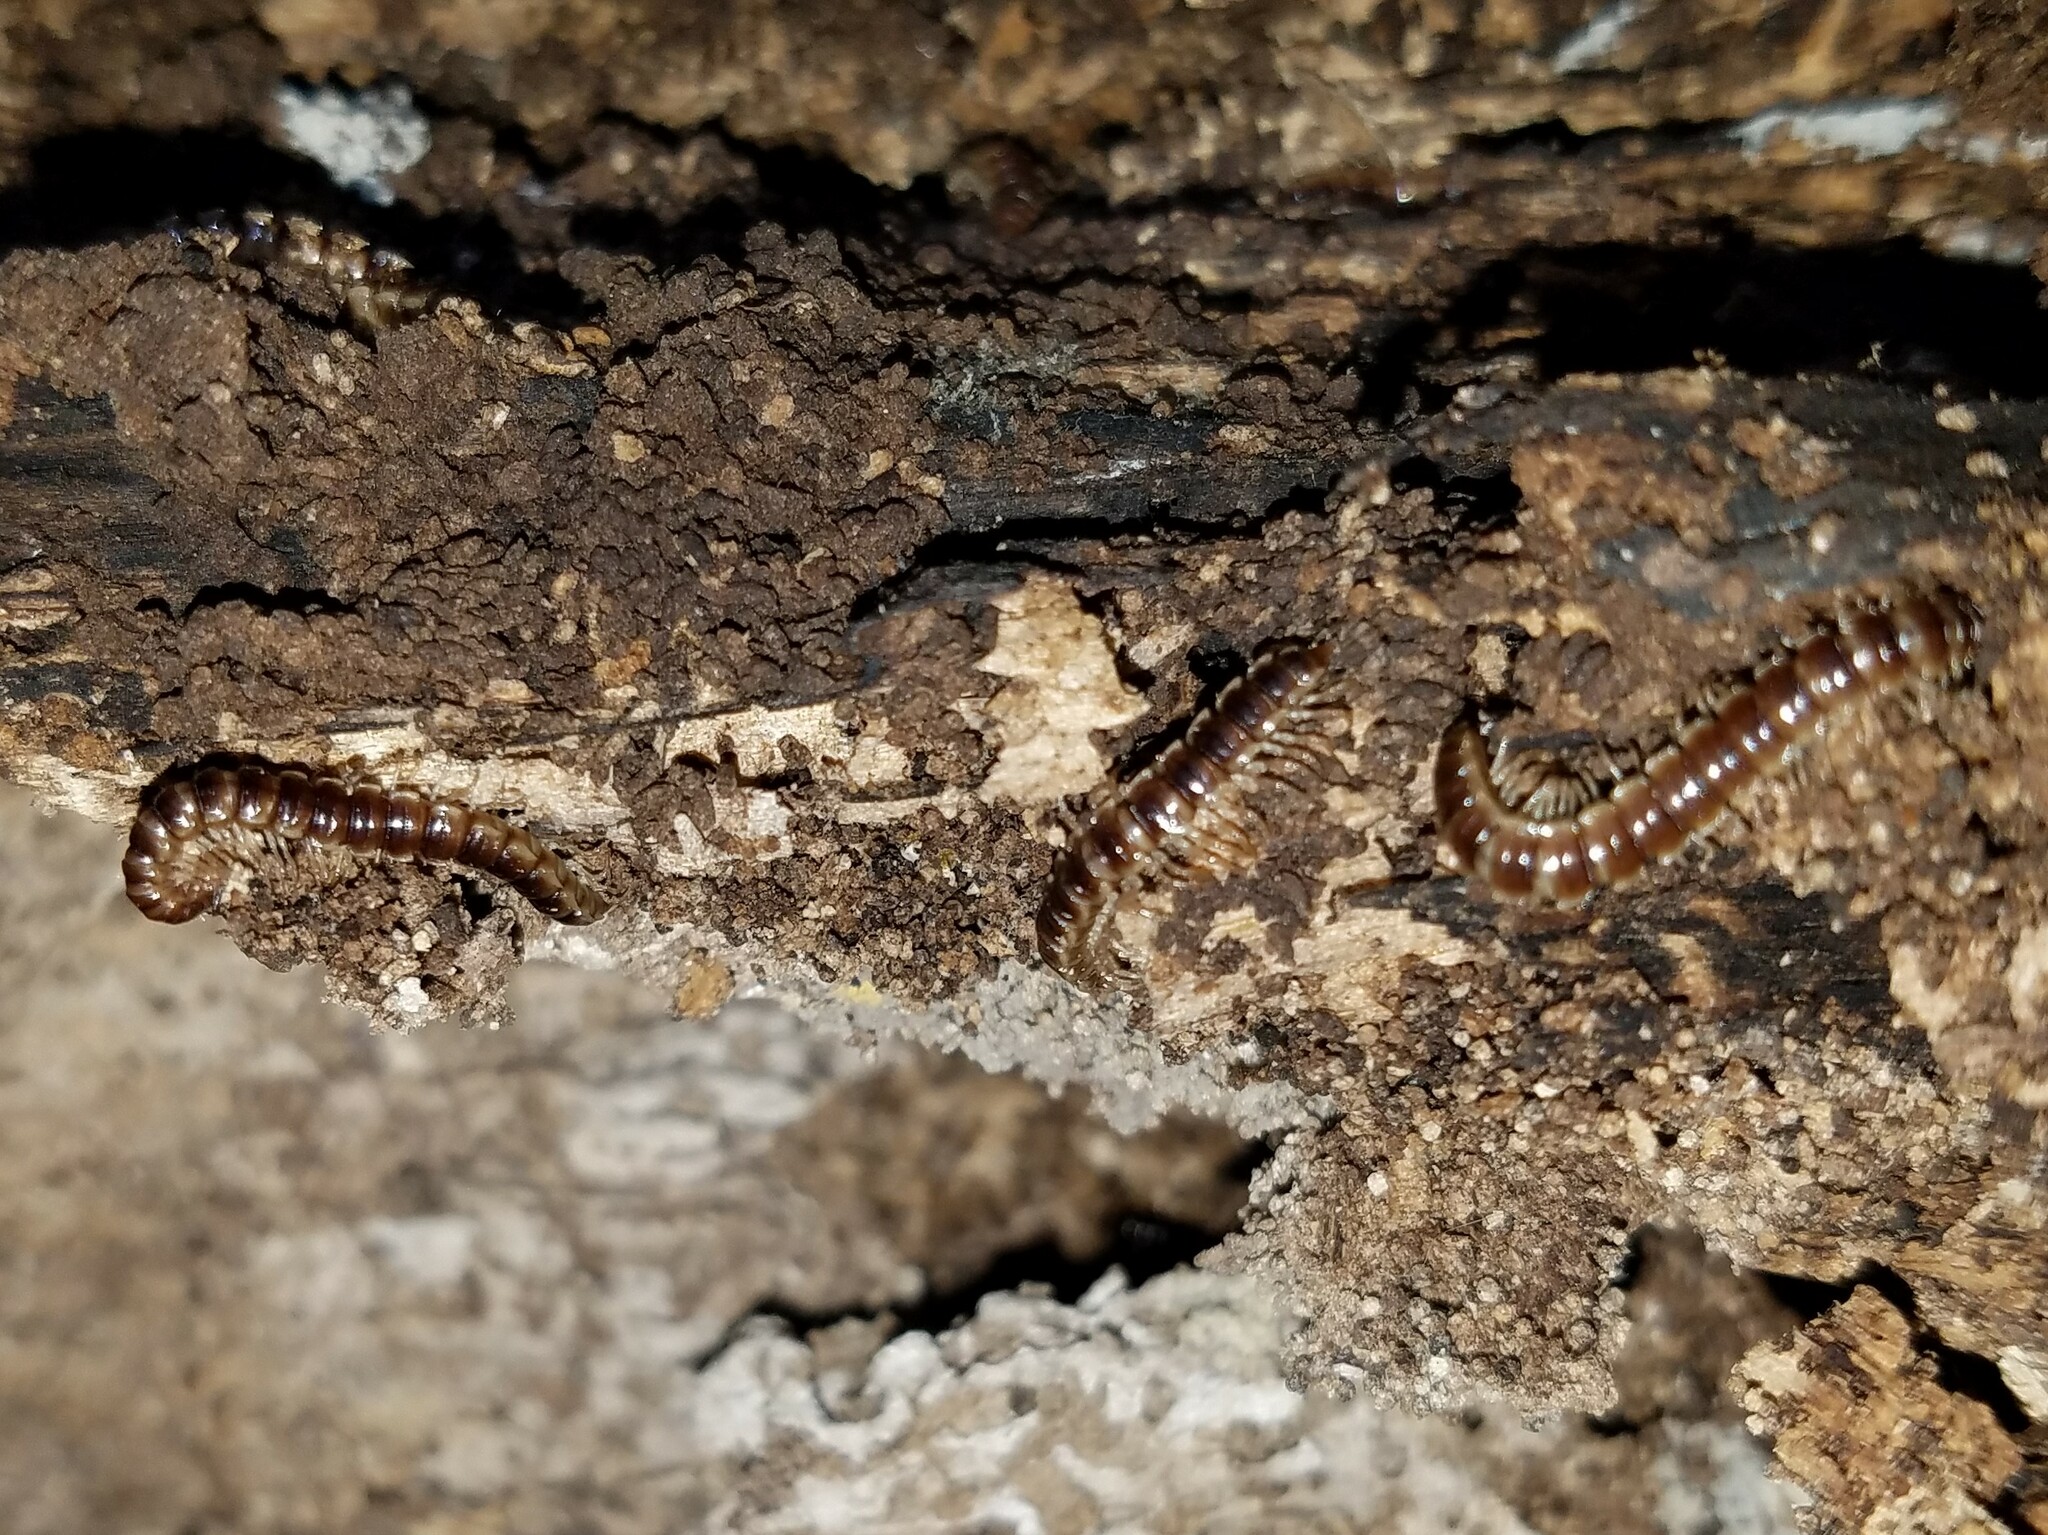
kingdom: Animalia
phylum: Arthropoda
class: Diplopoda
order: Polydesmida
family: Paradoxosomatidae
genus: Oxidus
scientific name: Oxidus gracilis
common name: Greenhouse millipede
